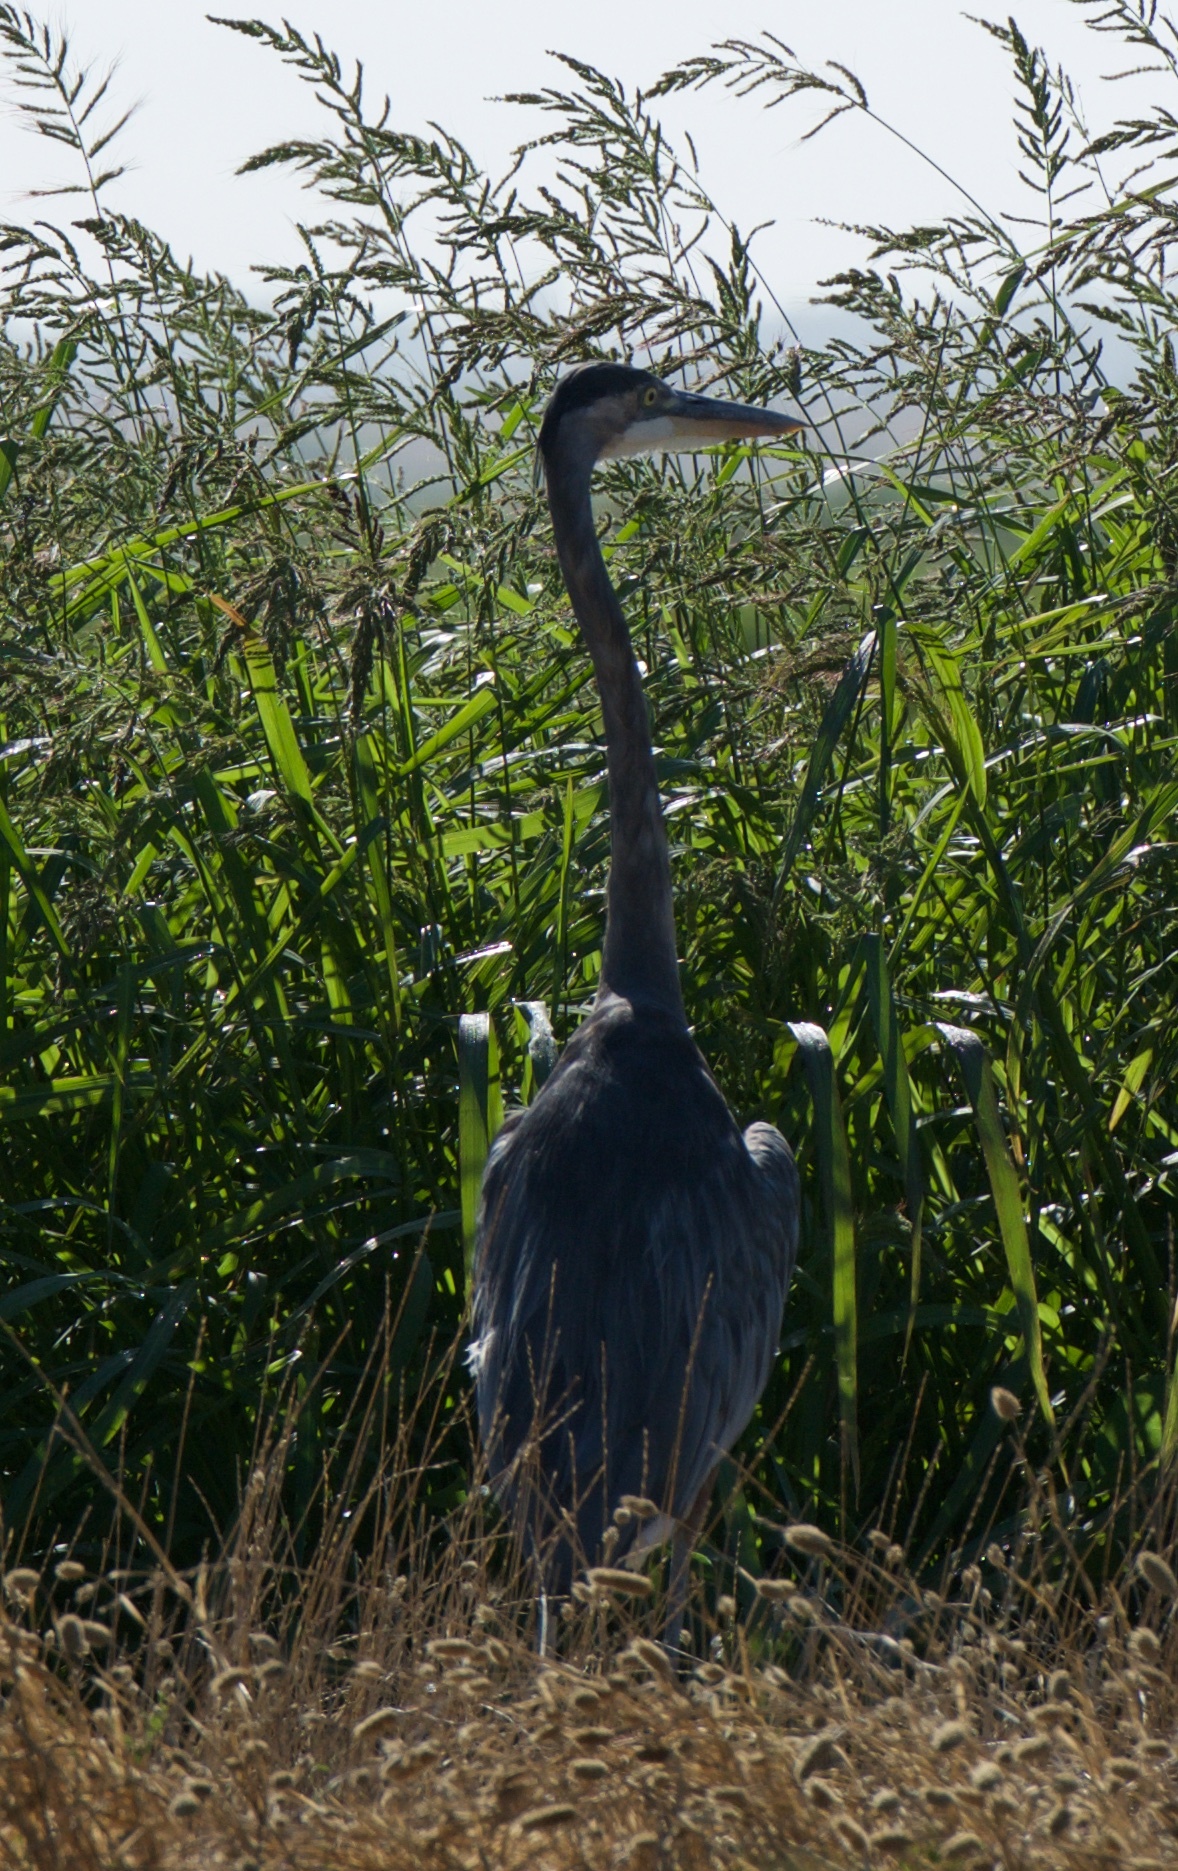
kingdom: Animalia
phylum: Chordata
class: Aves
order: Pelecaniformes
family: Ardeidae
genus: Ardea
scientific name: Ardea herodias
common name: Great blue heron
